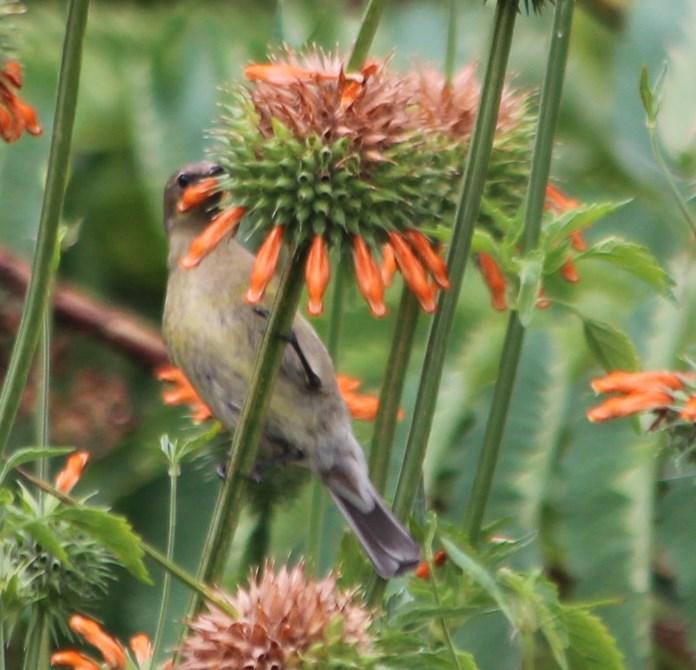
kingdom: Animalia
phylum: Chordata
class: Aves
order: Passeriformes
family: Nectariniidae
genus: Nectarinia
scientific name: Nectarinia famosa
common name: Malachite sunbird
